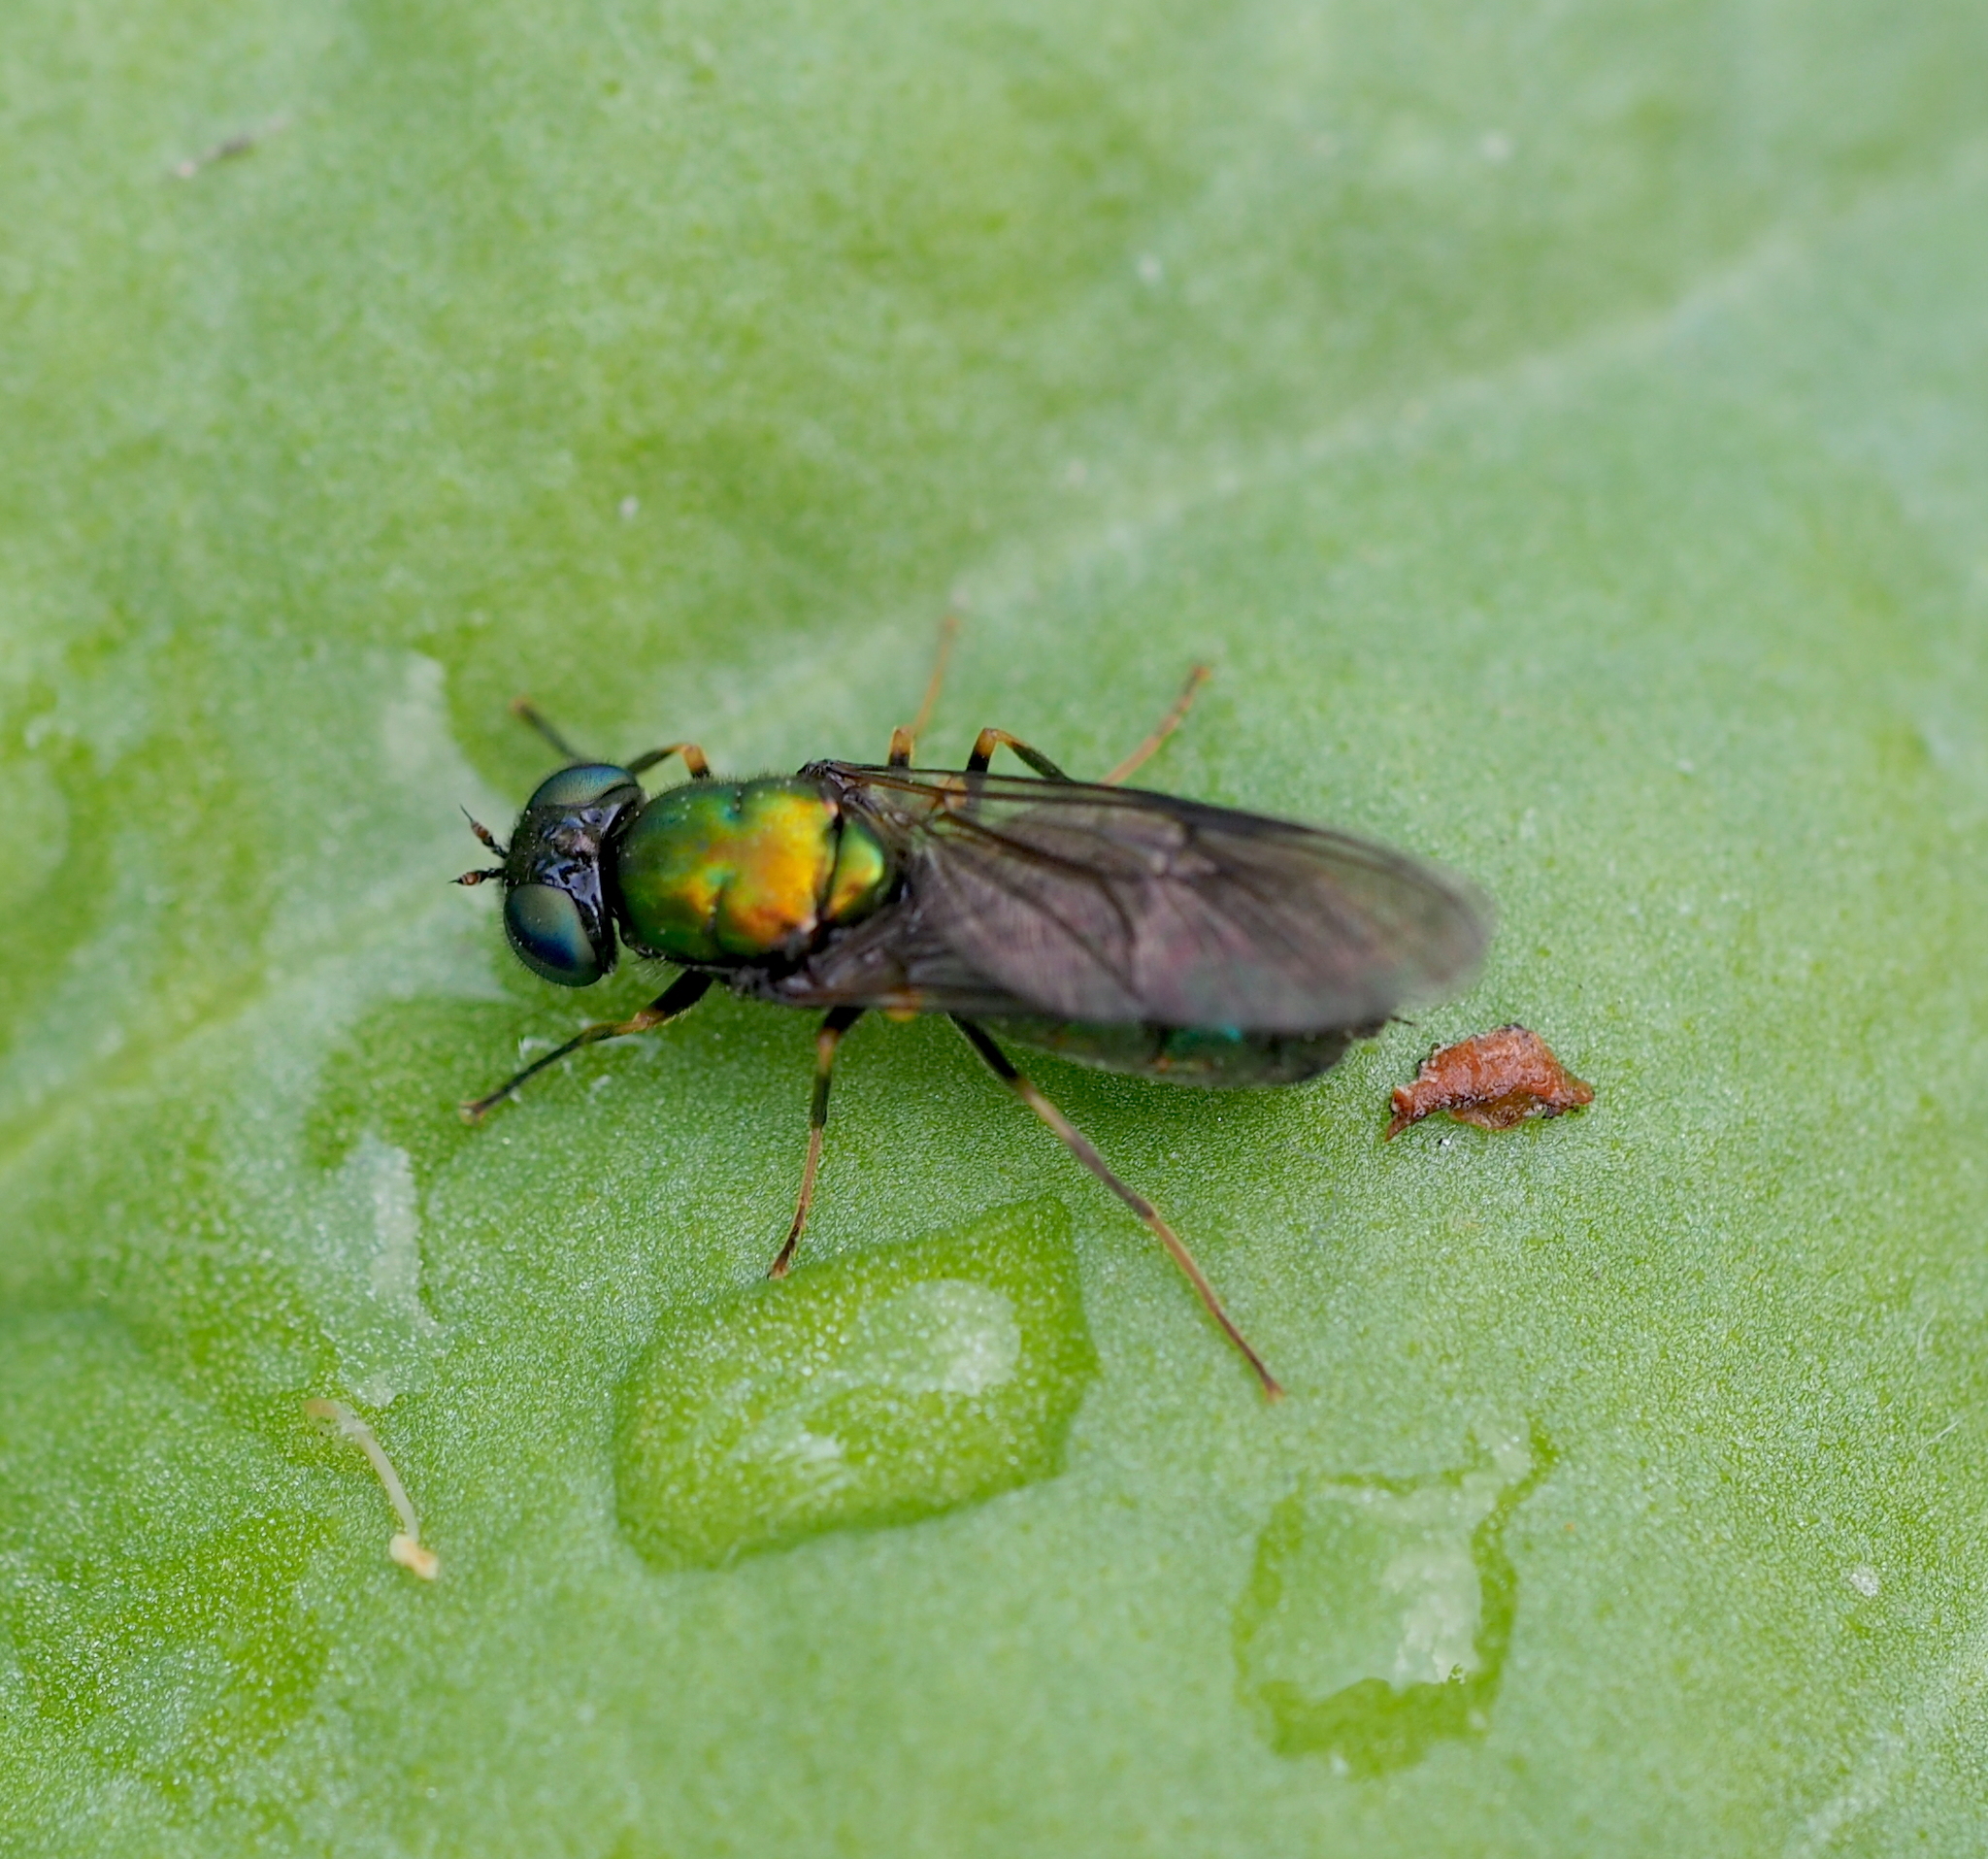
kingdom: Animalia
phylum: Arthropoda
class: Insecta
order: Diptera
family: Stratiomyidae
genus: Chloromyia
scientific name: Chloromyia speciosa
